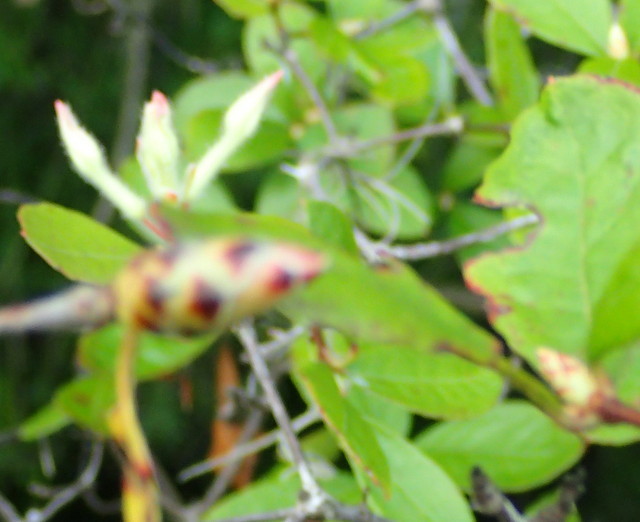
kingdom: Plantae
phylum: Tracheophyta
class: Magnoliopsida
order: Ericales
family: Ericaceae
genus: Rhododendron
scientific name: Rhododendron serrulatum
